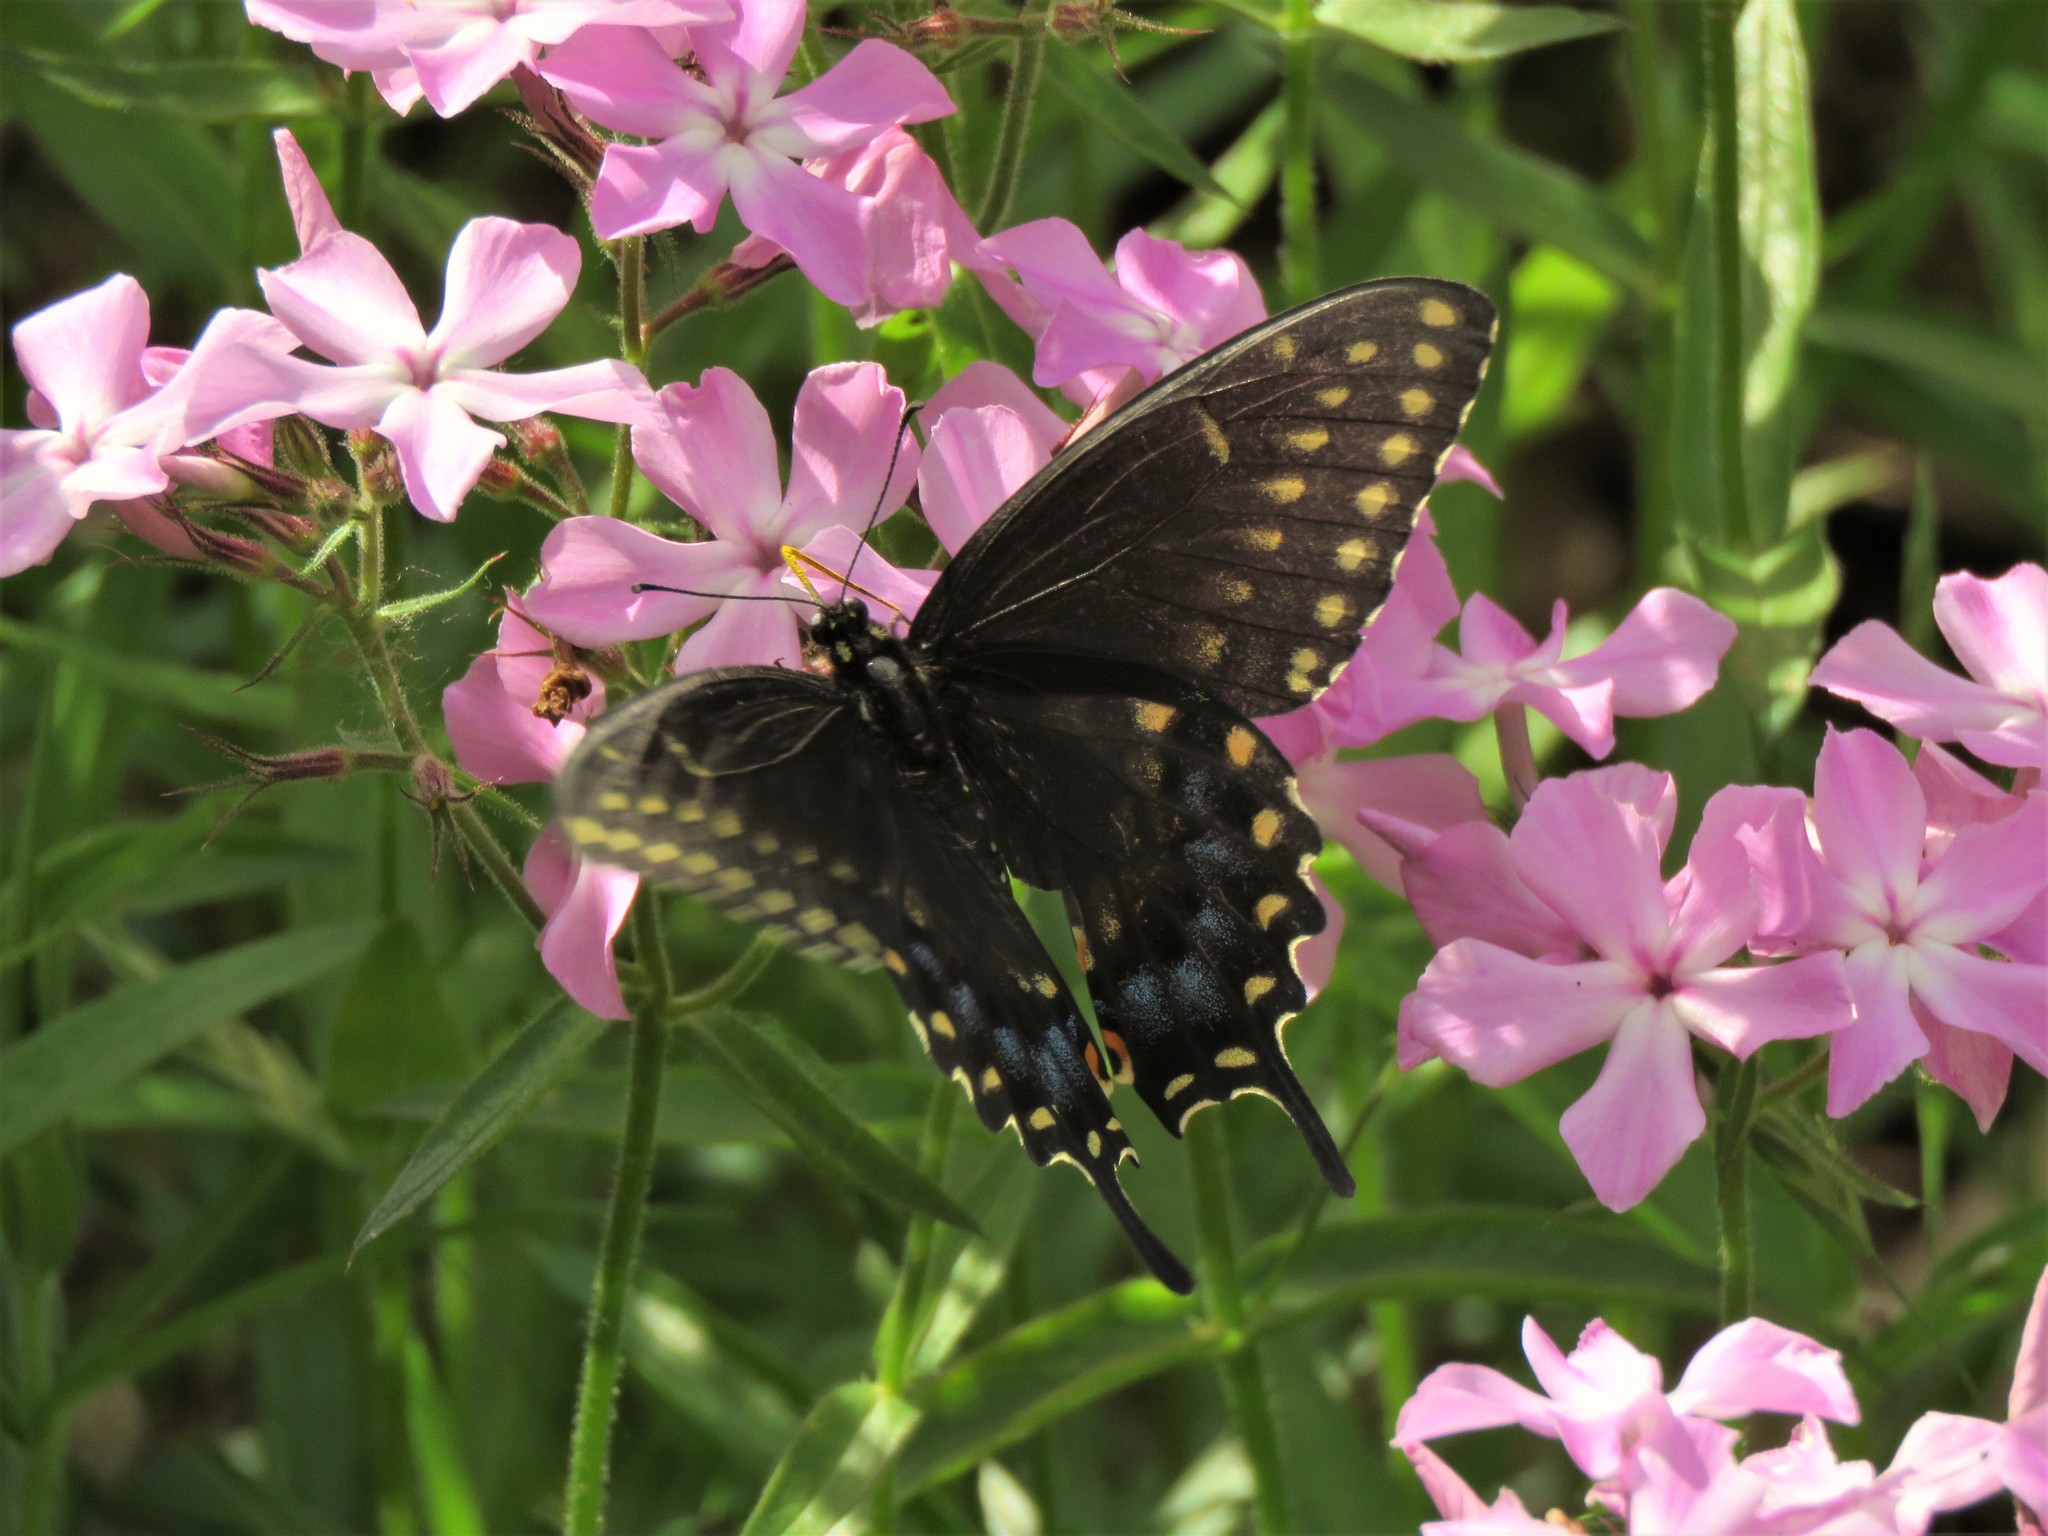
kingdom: Animalia
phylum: Arthropoda
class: Insecta
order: Lepidoptera
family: Papilionidae
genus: Papilio
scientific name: Papilio polyxenes
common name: Black swallowtail
